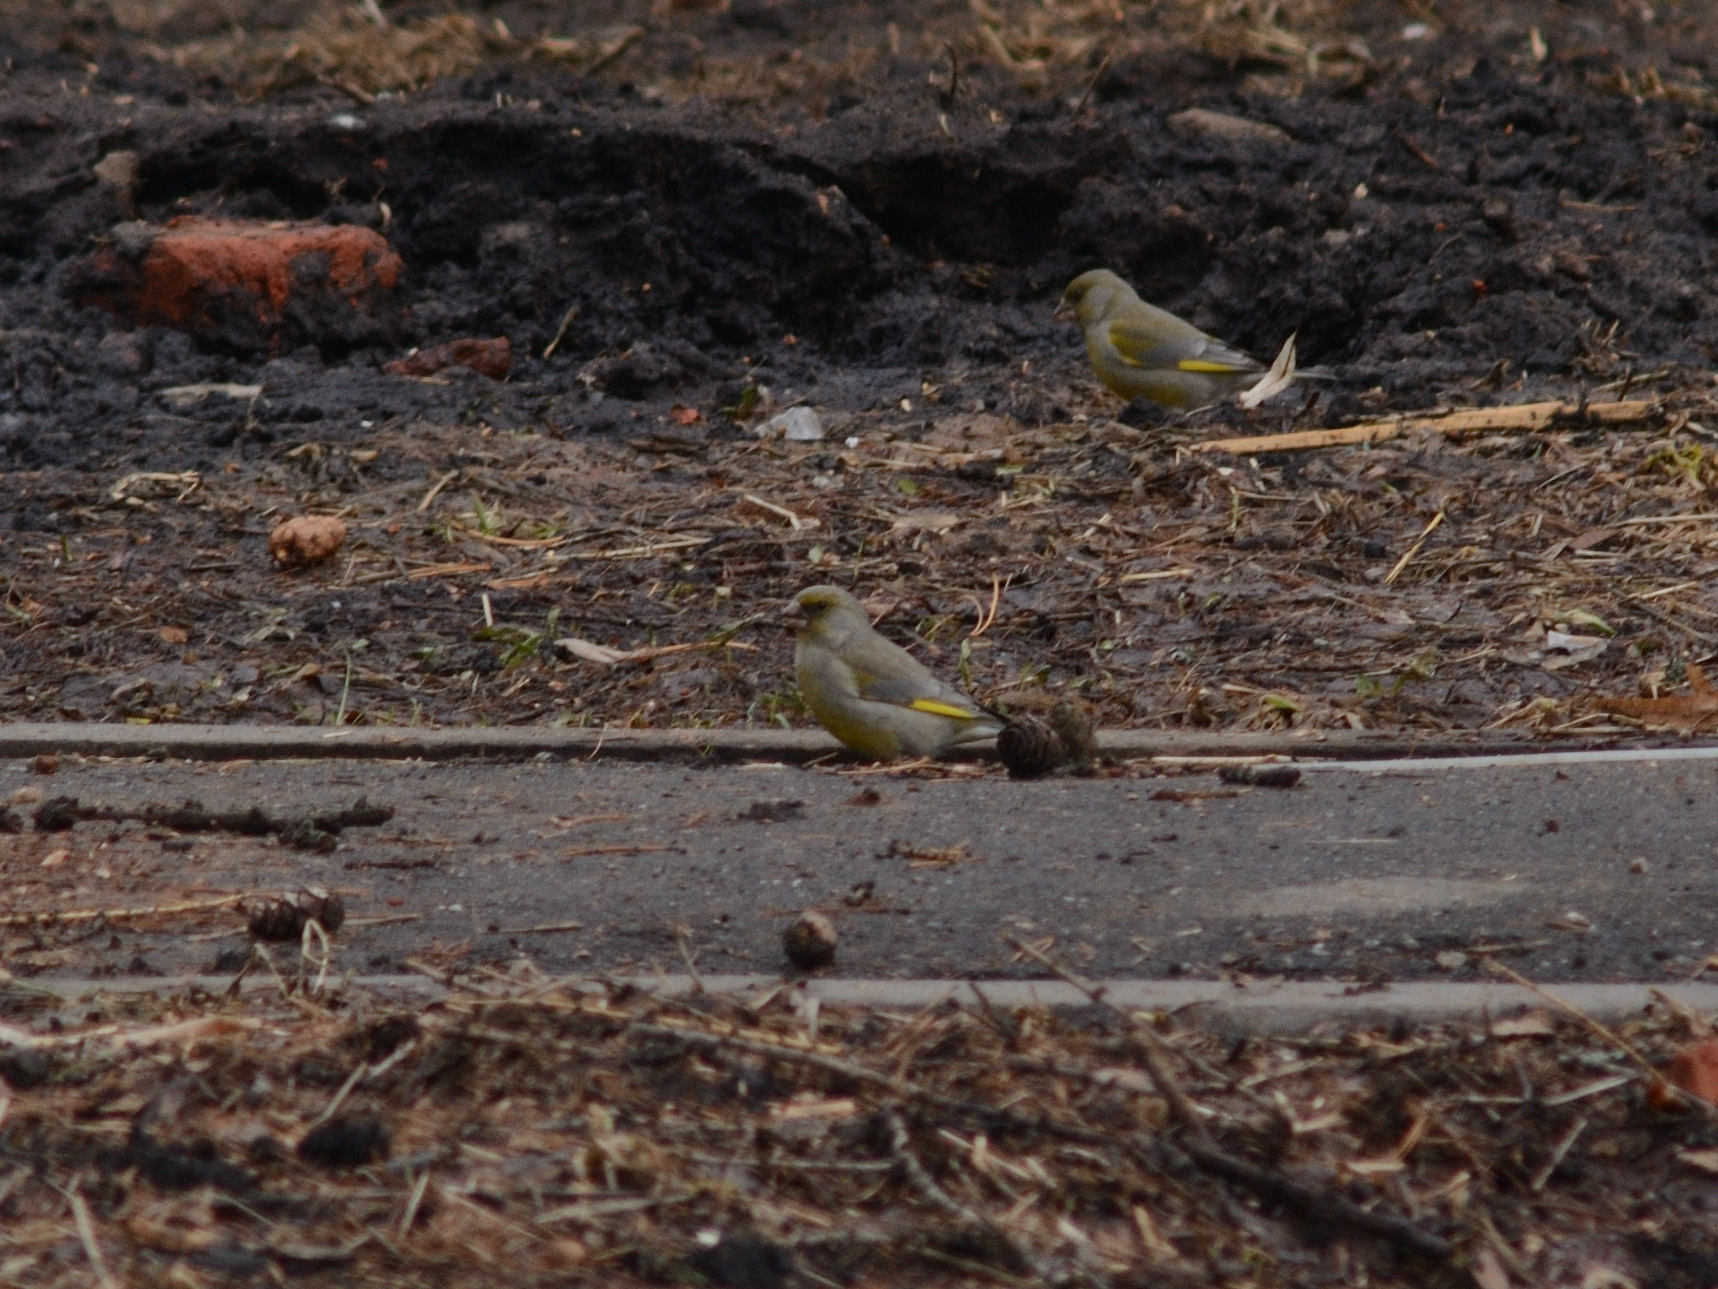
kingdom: Plantae
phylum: Tracheophyta
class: Liliopsida
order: Poales
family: Poaceae
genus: Chloris
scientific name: Chloris chloris
